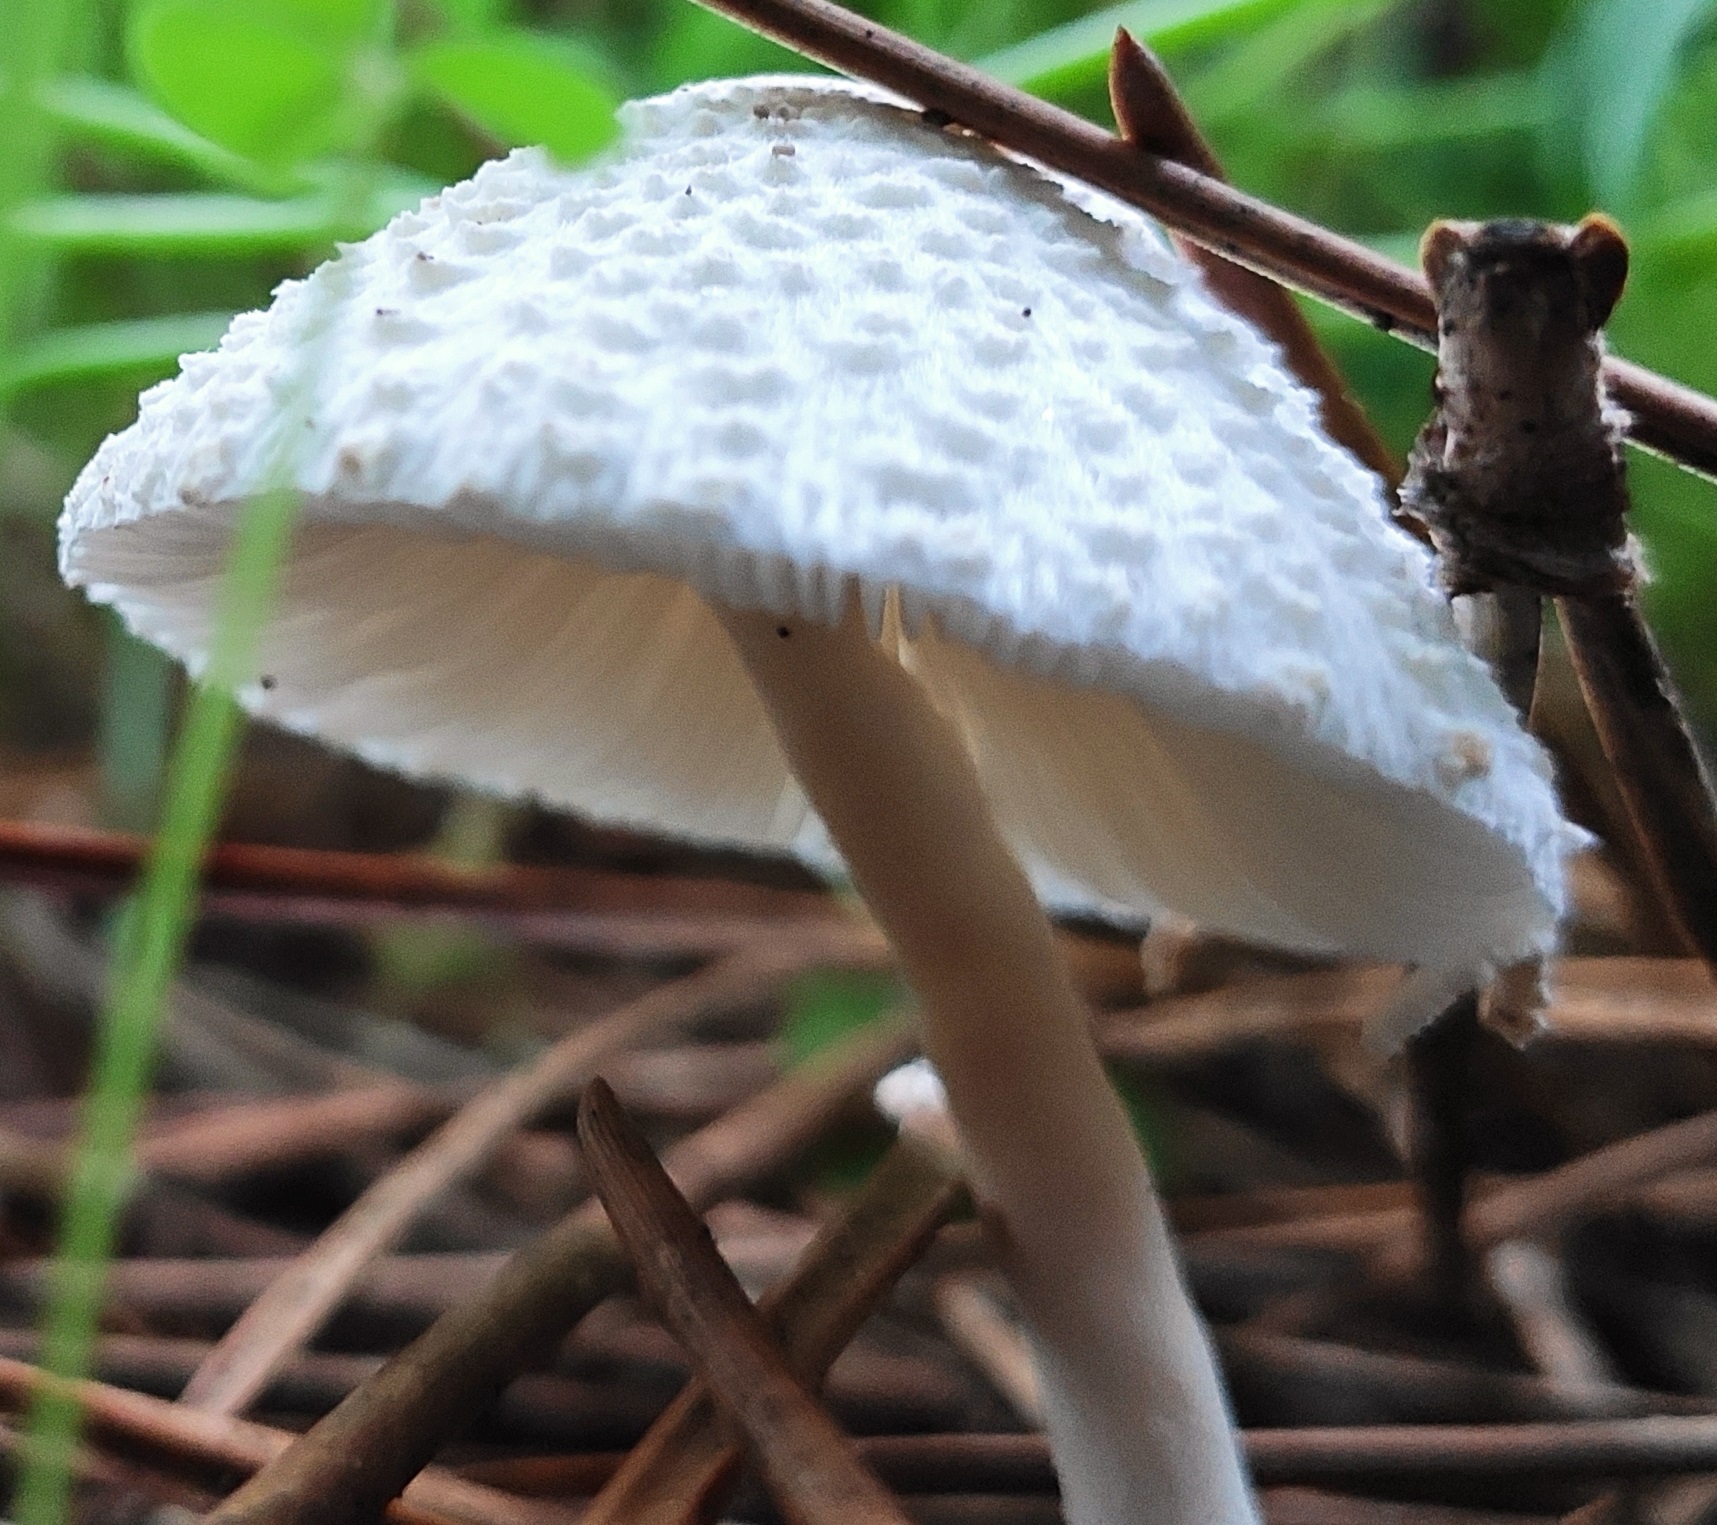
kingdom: Fungi
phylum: Basidiomycota
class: Agaricomycetes
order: Agaricales
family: Agaricaceae
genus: Leucocoprinus
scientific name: Leucocoprinus cepistipes
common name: Onion-stalk parasol
